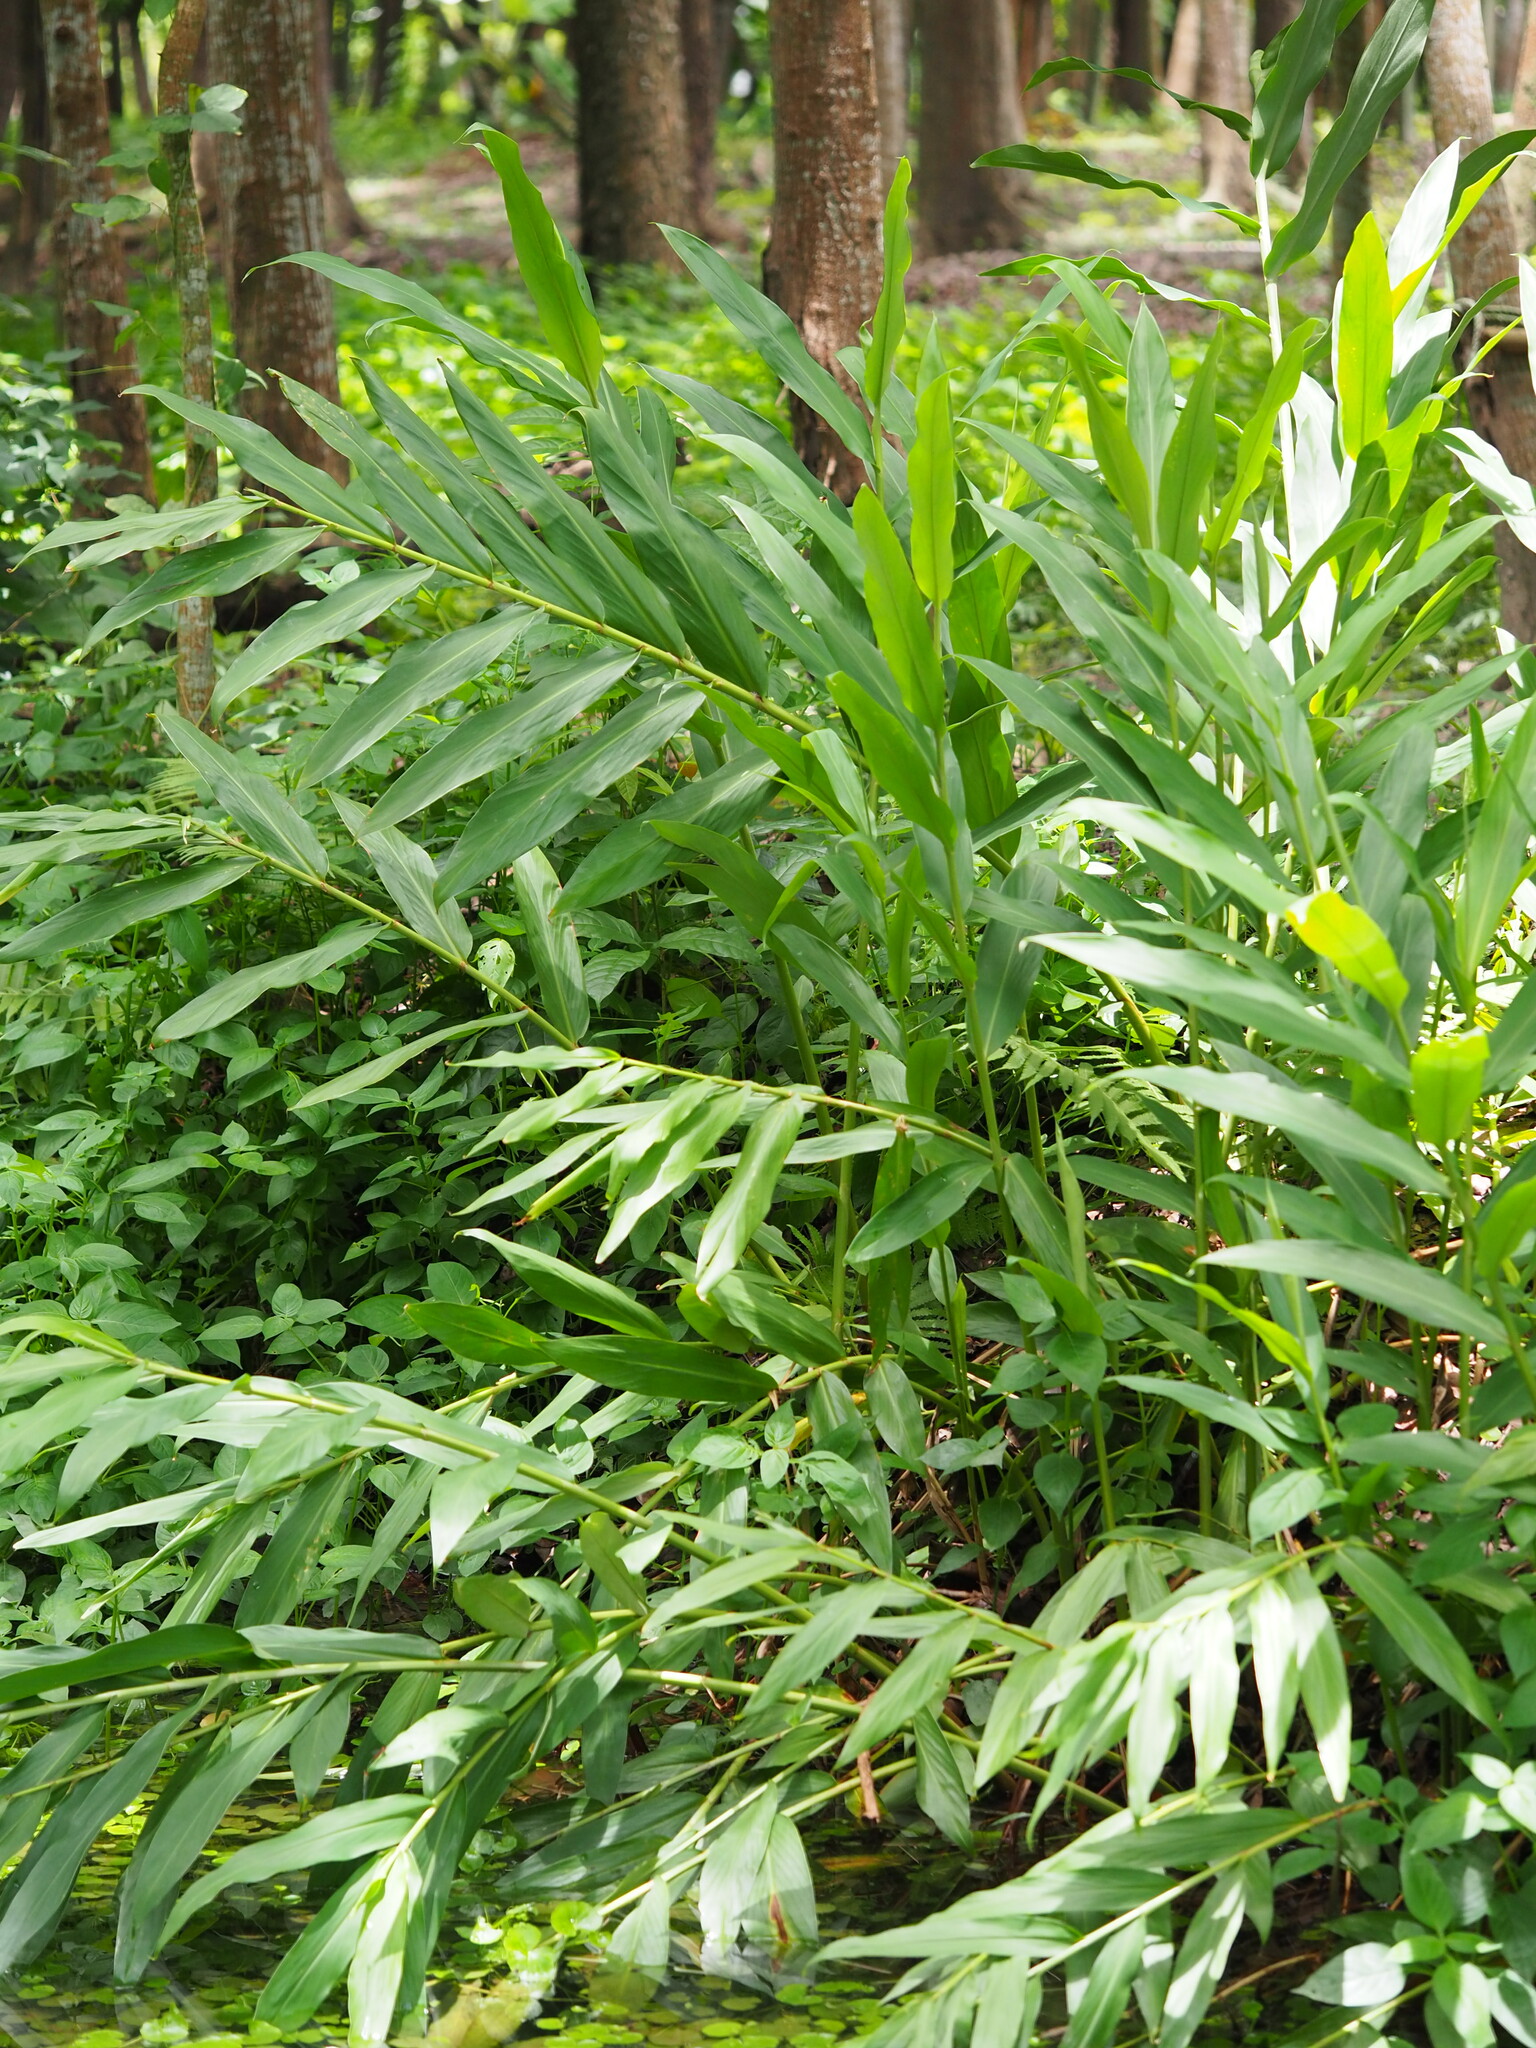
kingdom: Plantae
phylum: Tracheophyta
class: Liliopsida
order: Zingiberales
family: Zingiberaceae
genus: Hedychium
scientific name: Hedychium coronarium
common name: White garland-lily
